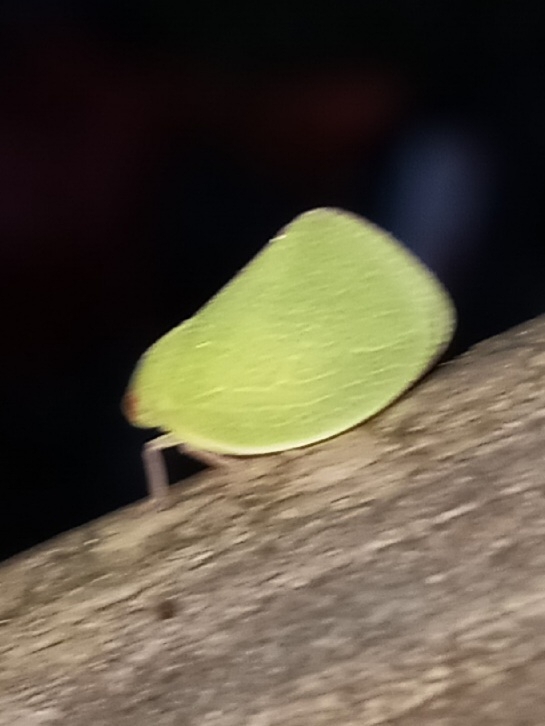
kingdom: Animalia
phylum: Arthropoda
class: Insecta
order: Hemiptera
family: Acanaloniidae
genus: Acanalonia
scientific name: Acanalonia servillei
